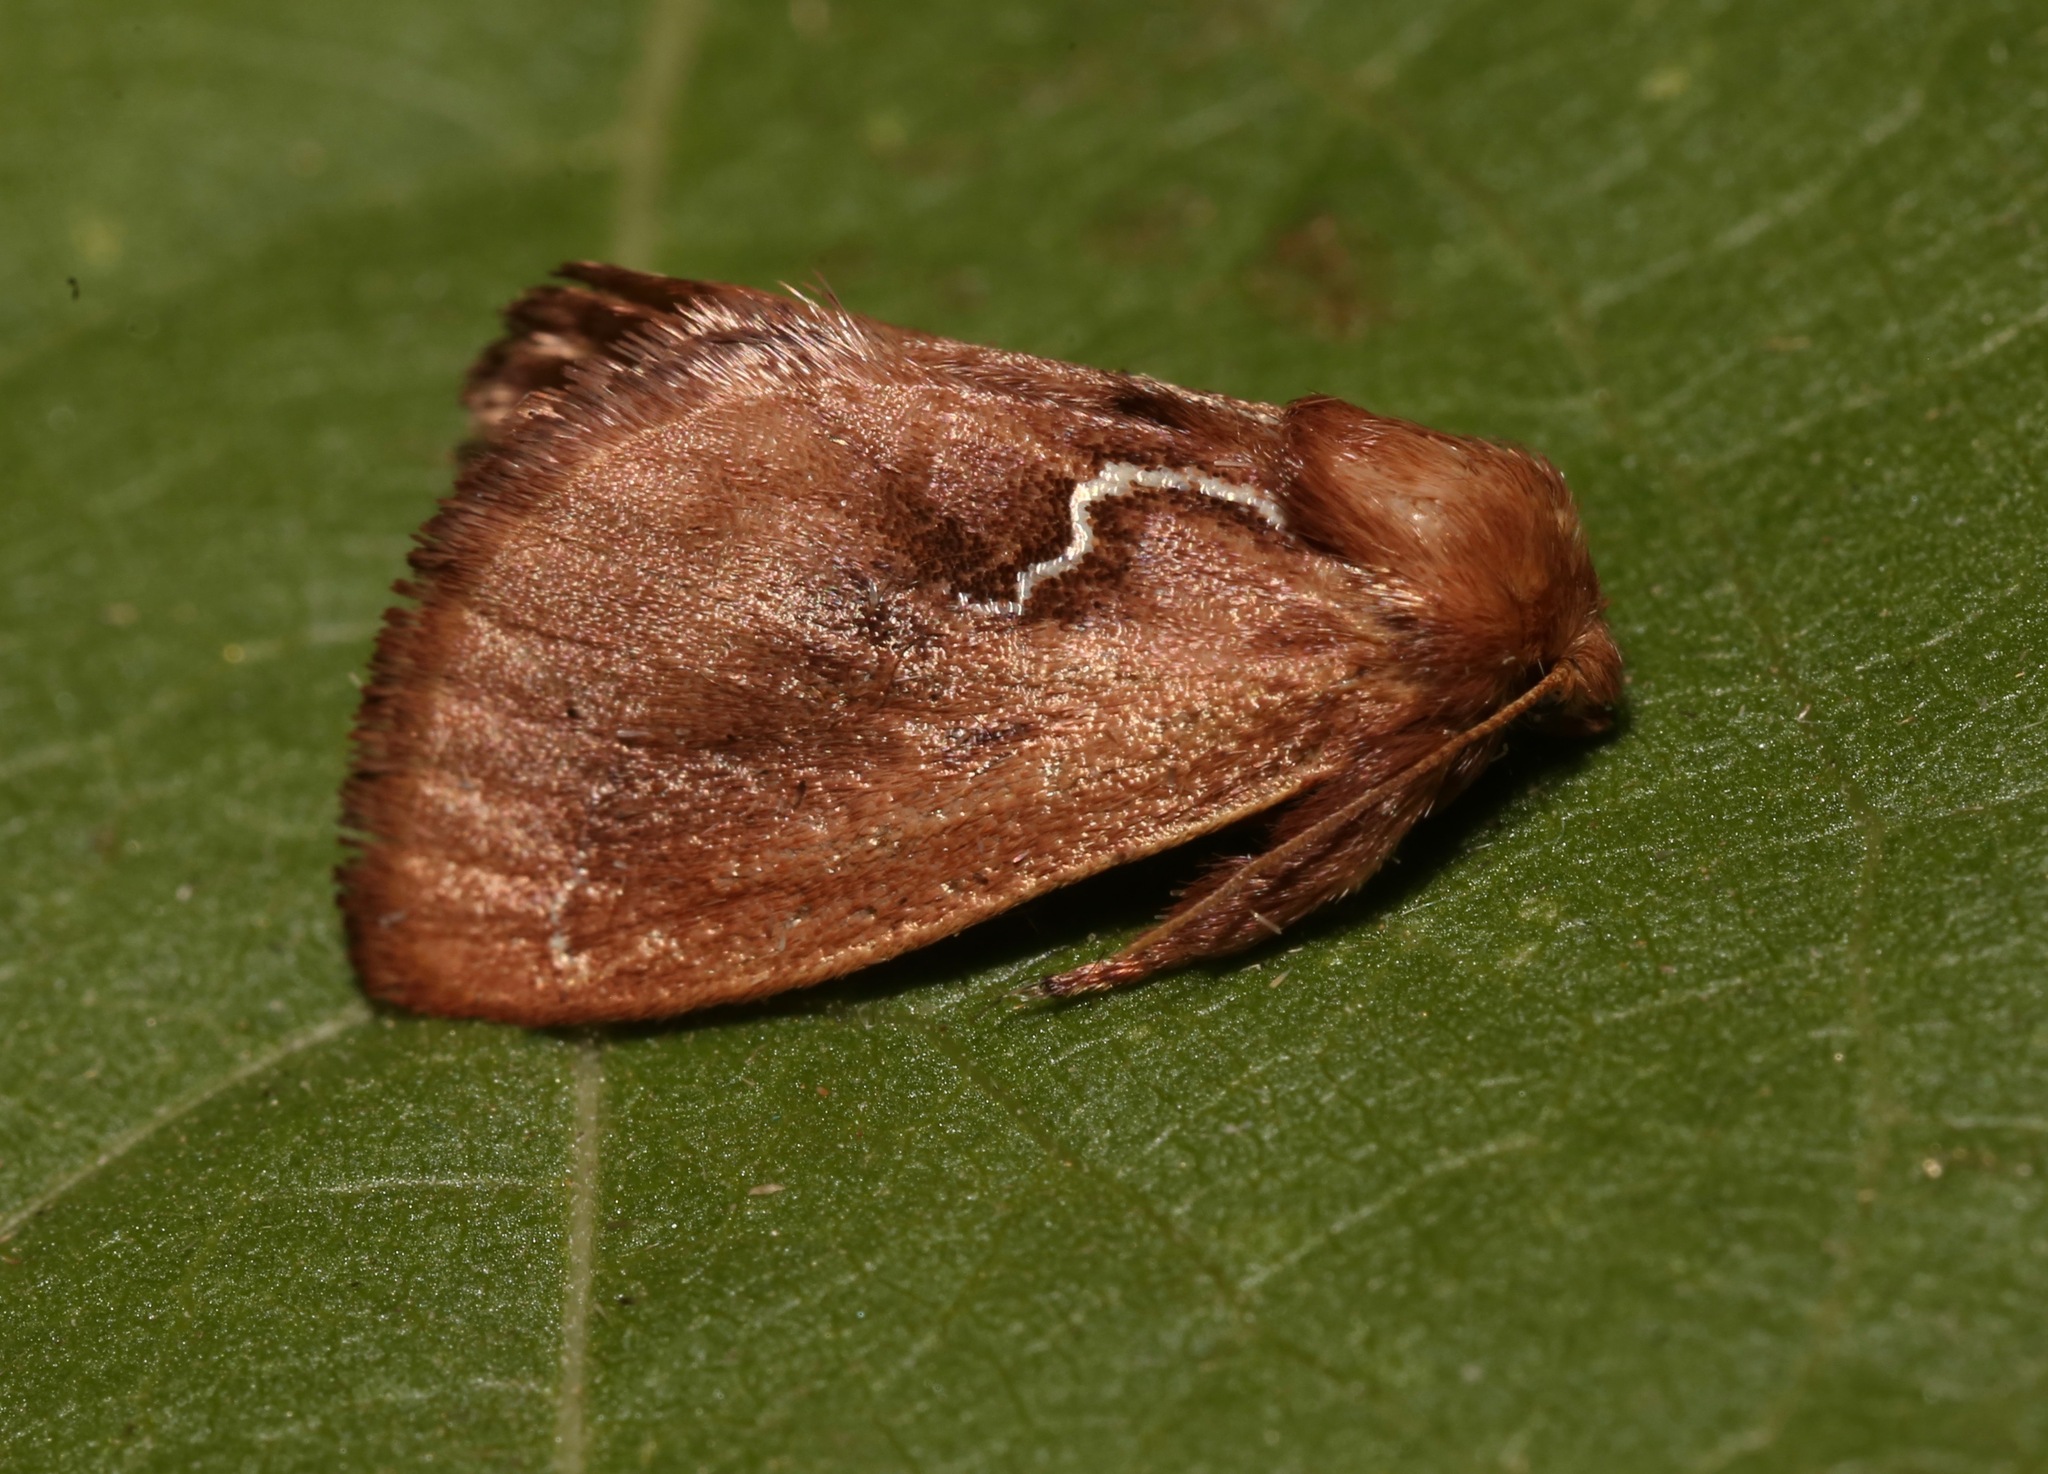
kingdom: Animalia
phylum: Arthropoda
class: Insecta
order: Lepidoptera
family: Limacodidae
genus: Euclea
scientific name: Euclea obliqua
